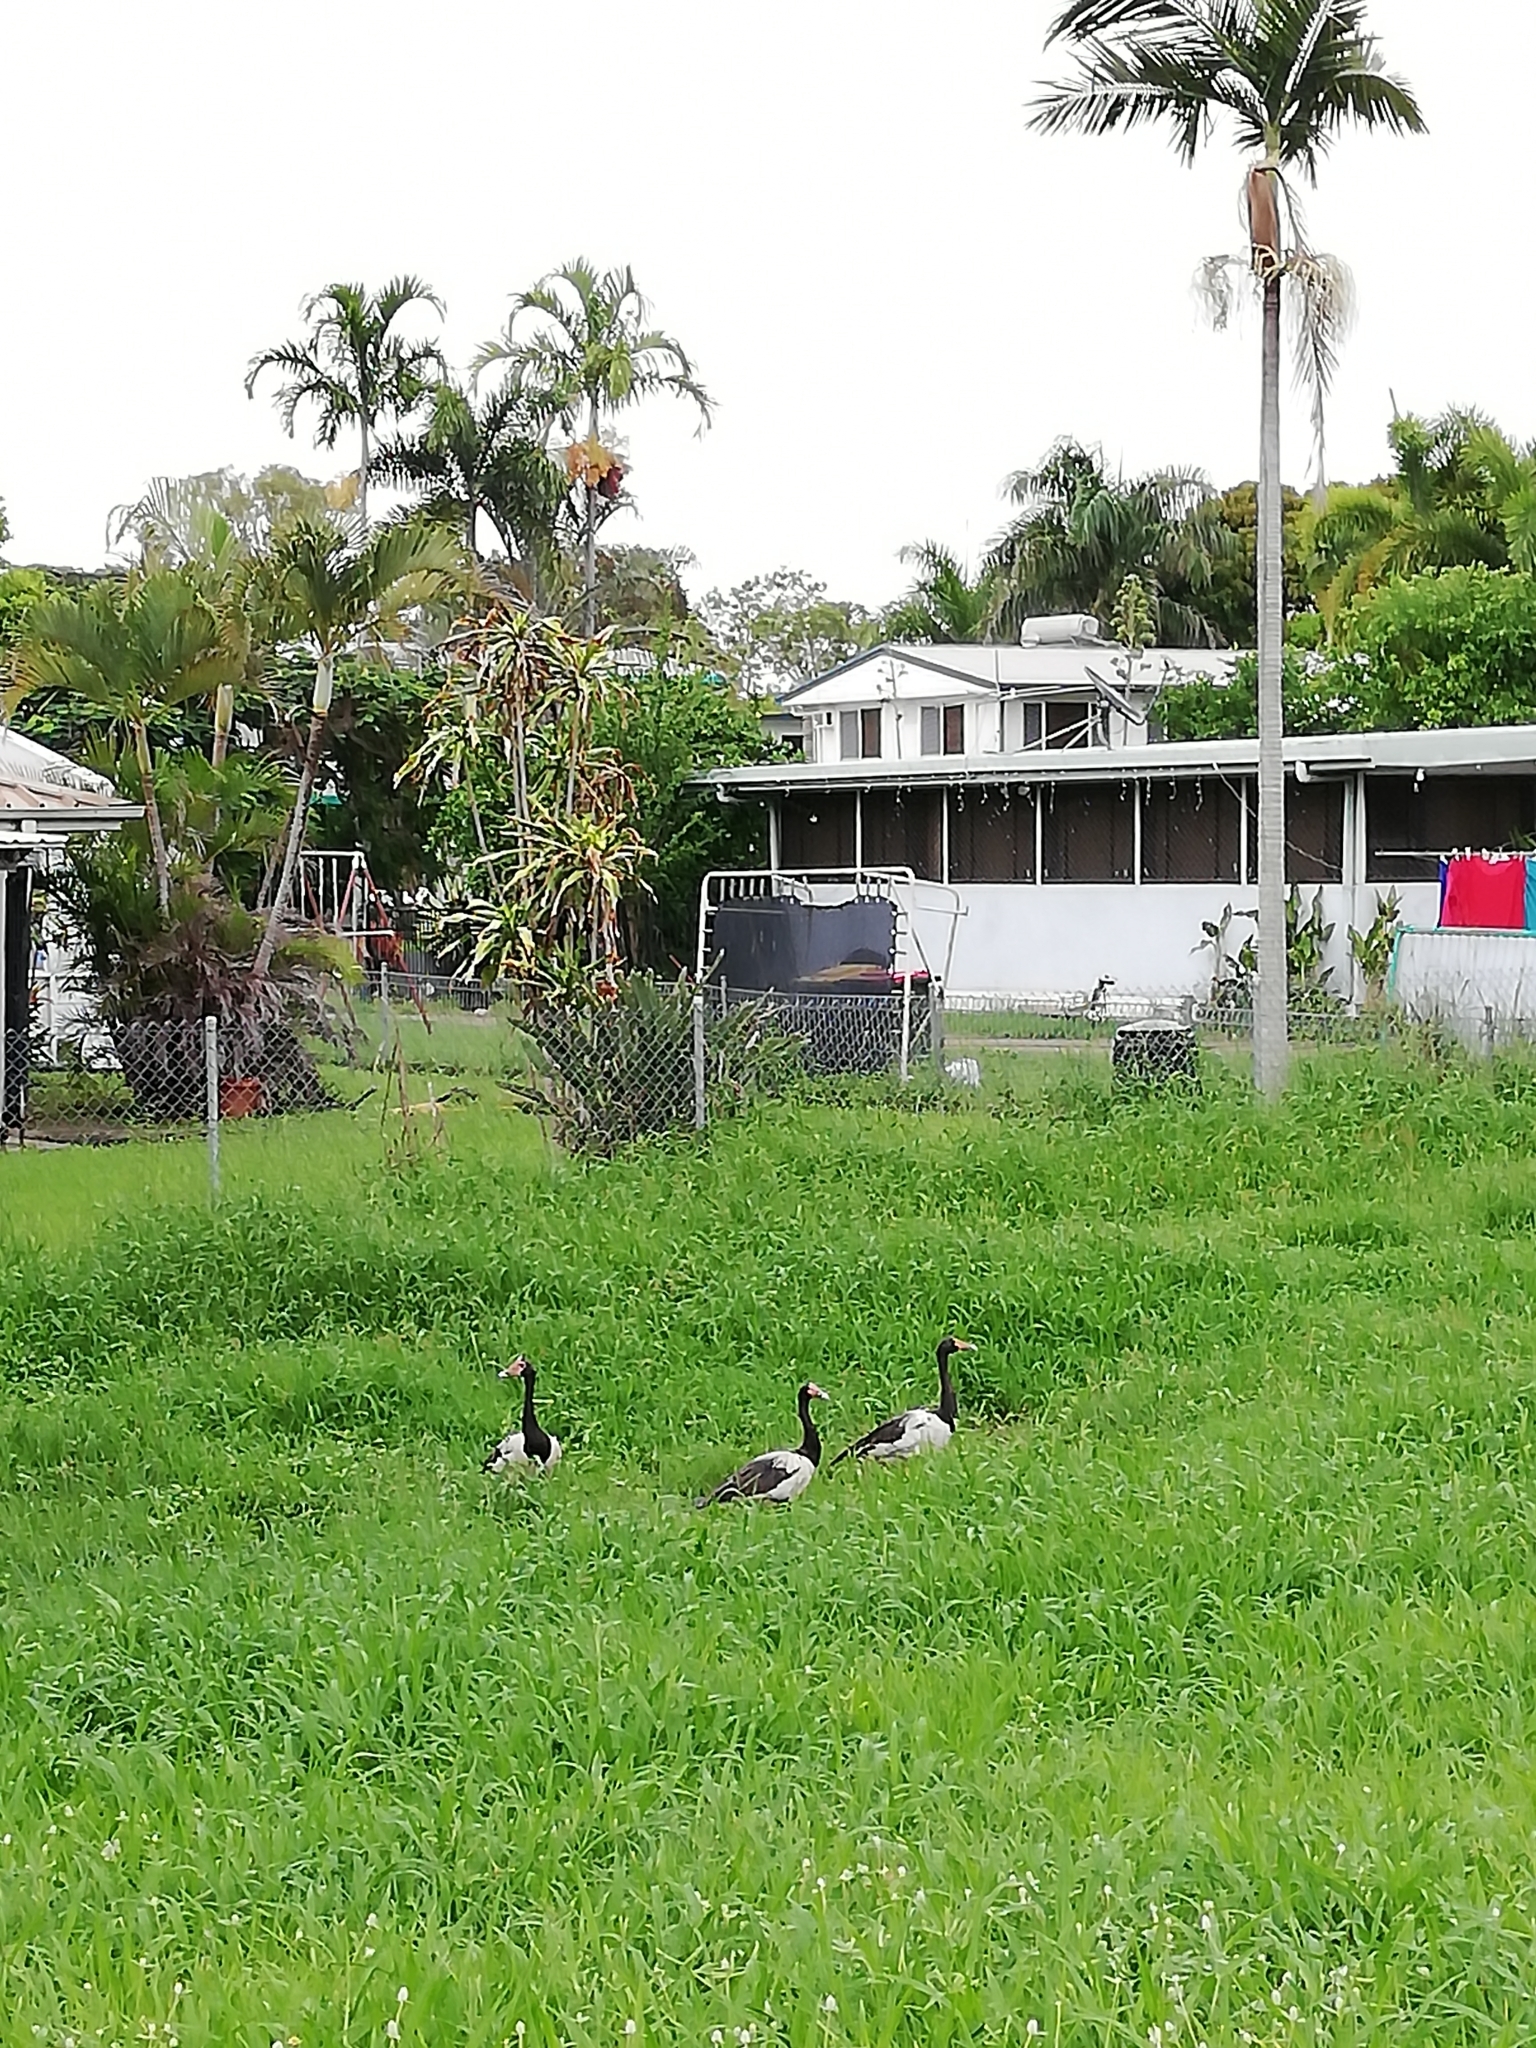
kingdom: Animalia
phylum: Chordata
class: Aves
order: Anseriformes
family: Anseranatidae
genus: Anseranas
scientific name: Anseranas semipalmata
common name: Magpie goose
